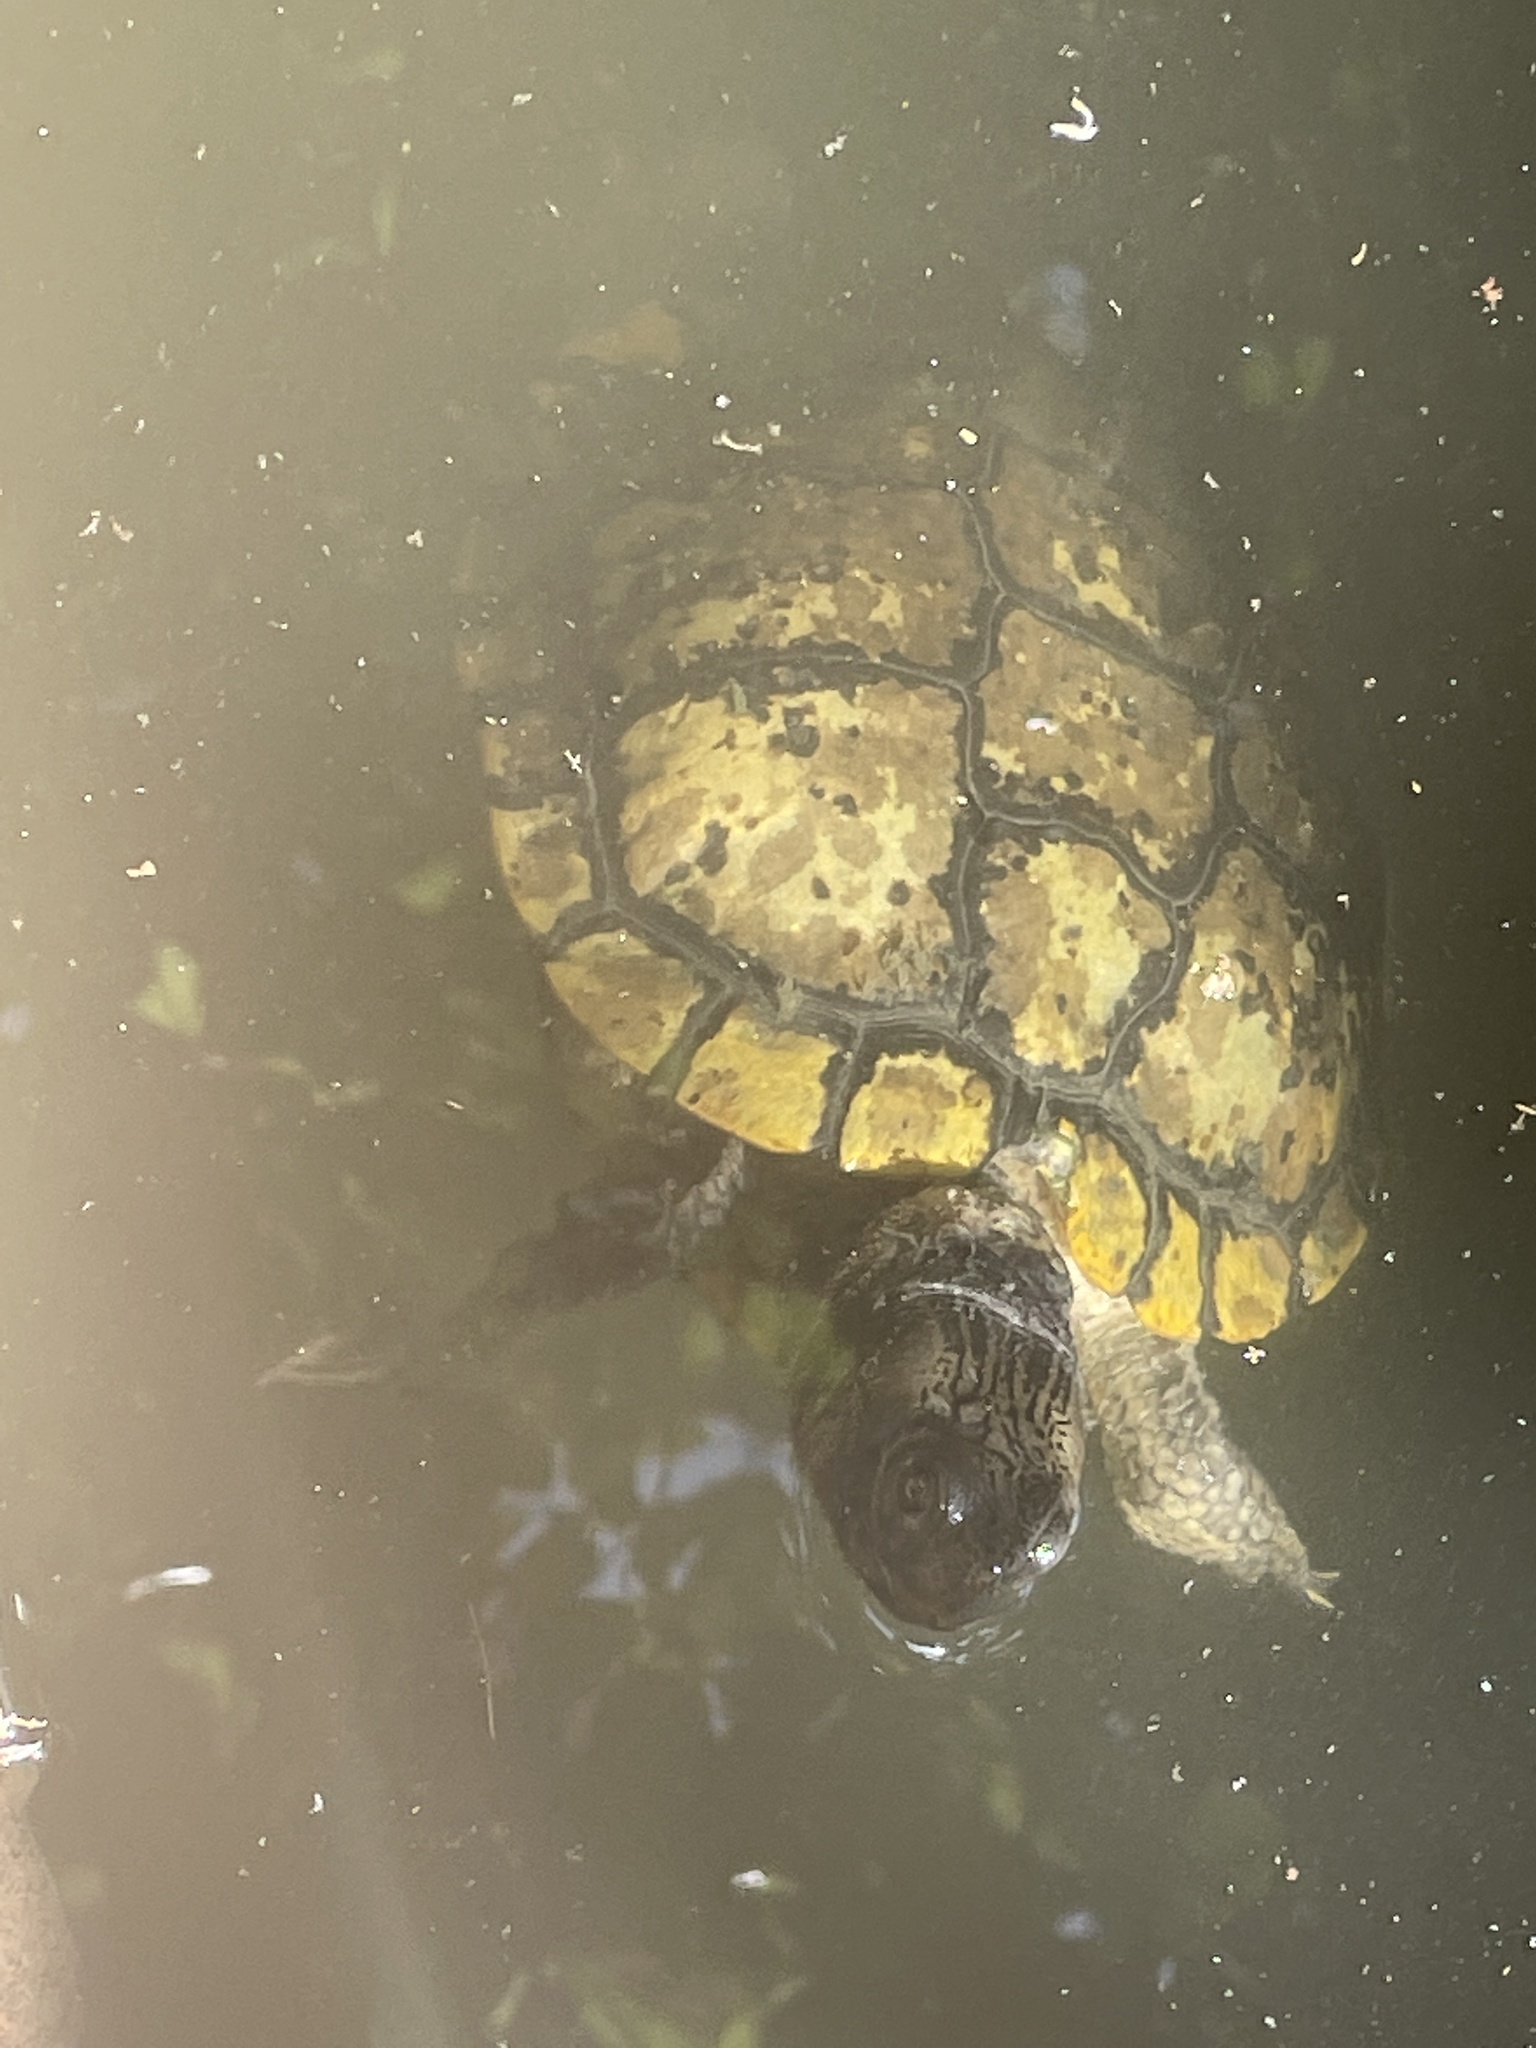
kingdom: Animalia
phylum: Chordata
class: Testudines
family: Emydidae
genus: Trachemys
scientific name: Trachemys scripta
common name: Slider
